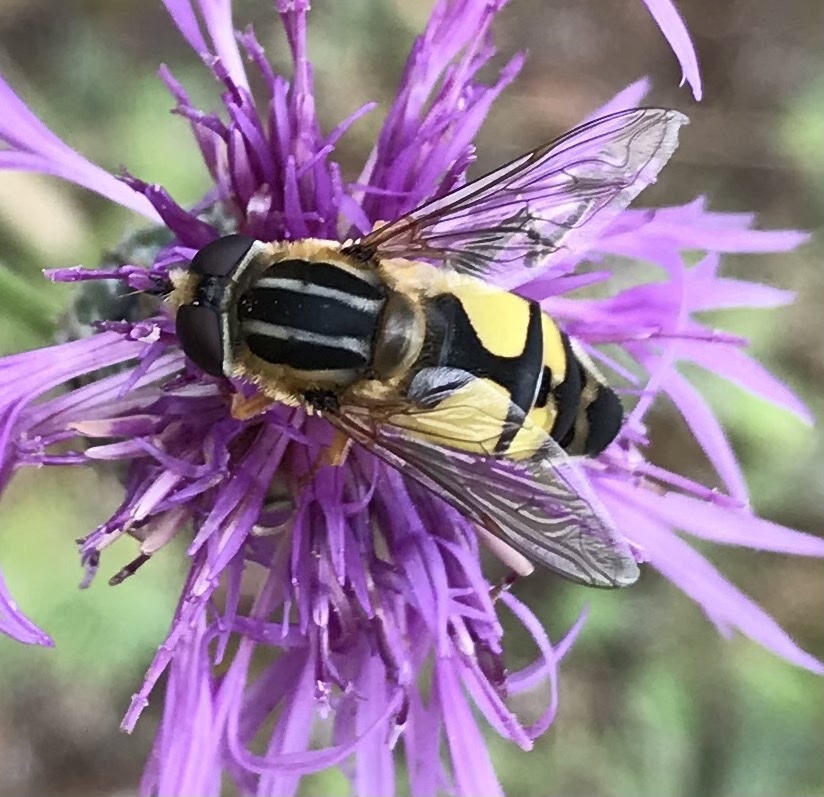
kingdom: Animalia
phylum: Arthropoda
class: Insecta
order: Diptera
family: Syrphidae
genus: Helophilus
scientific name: Helophilus trivittatus
